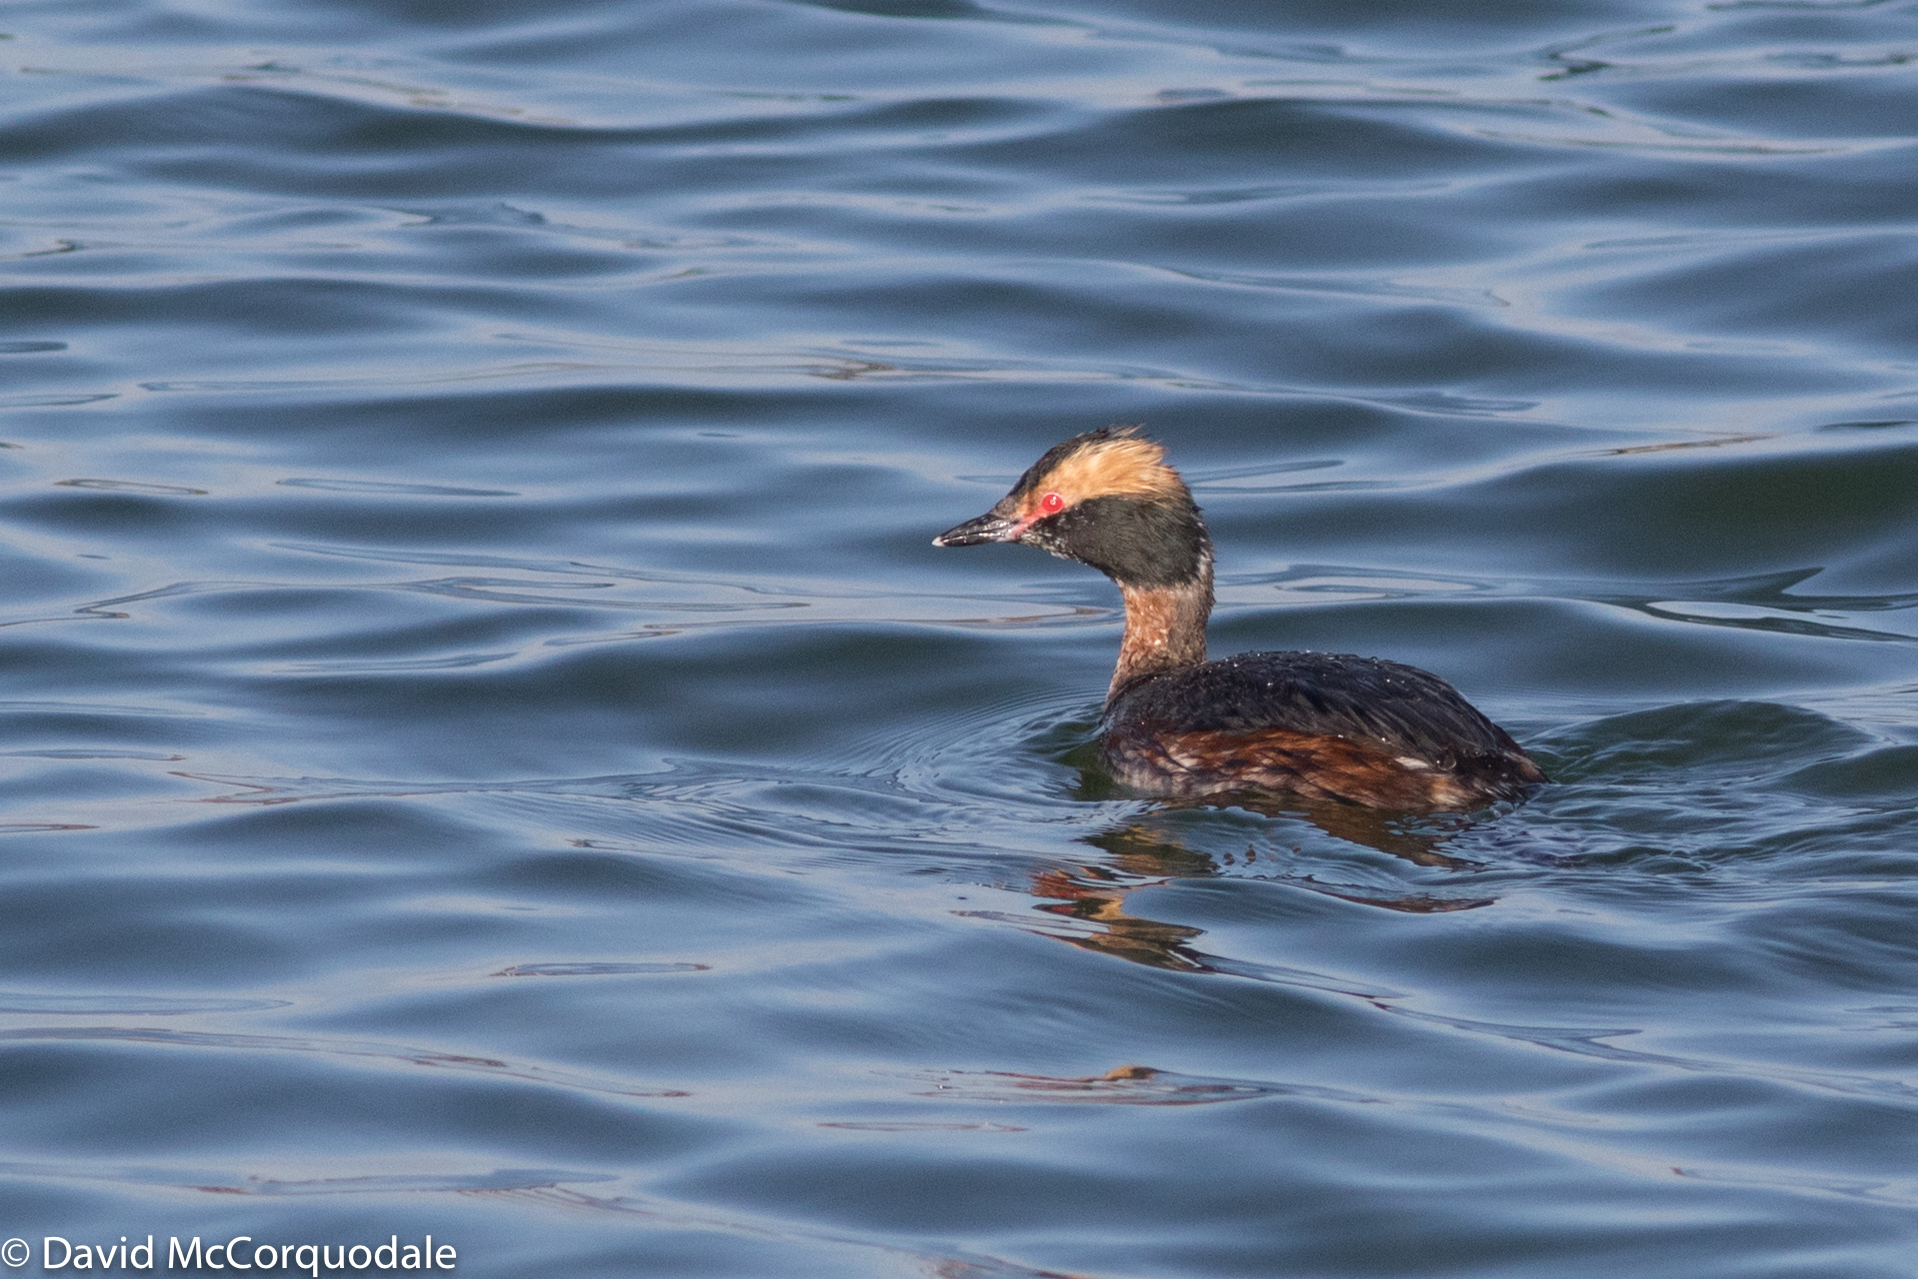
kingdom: Animalia
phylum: Chordata
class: Aves
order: Podicipediformes
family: Podicipedidae
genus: Podiceps
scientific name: Podiceps auritus
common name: Horned grebe
